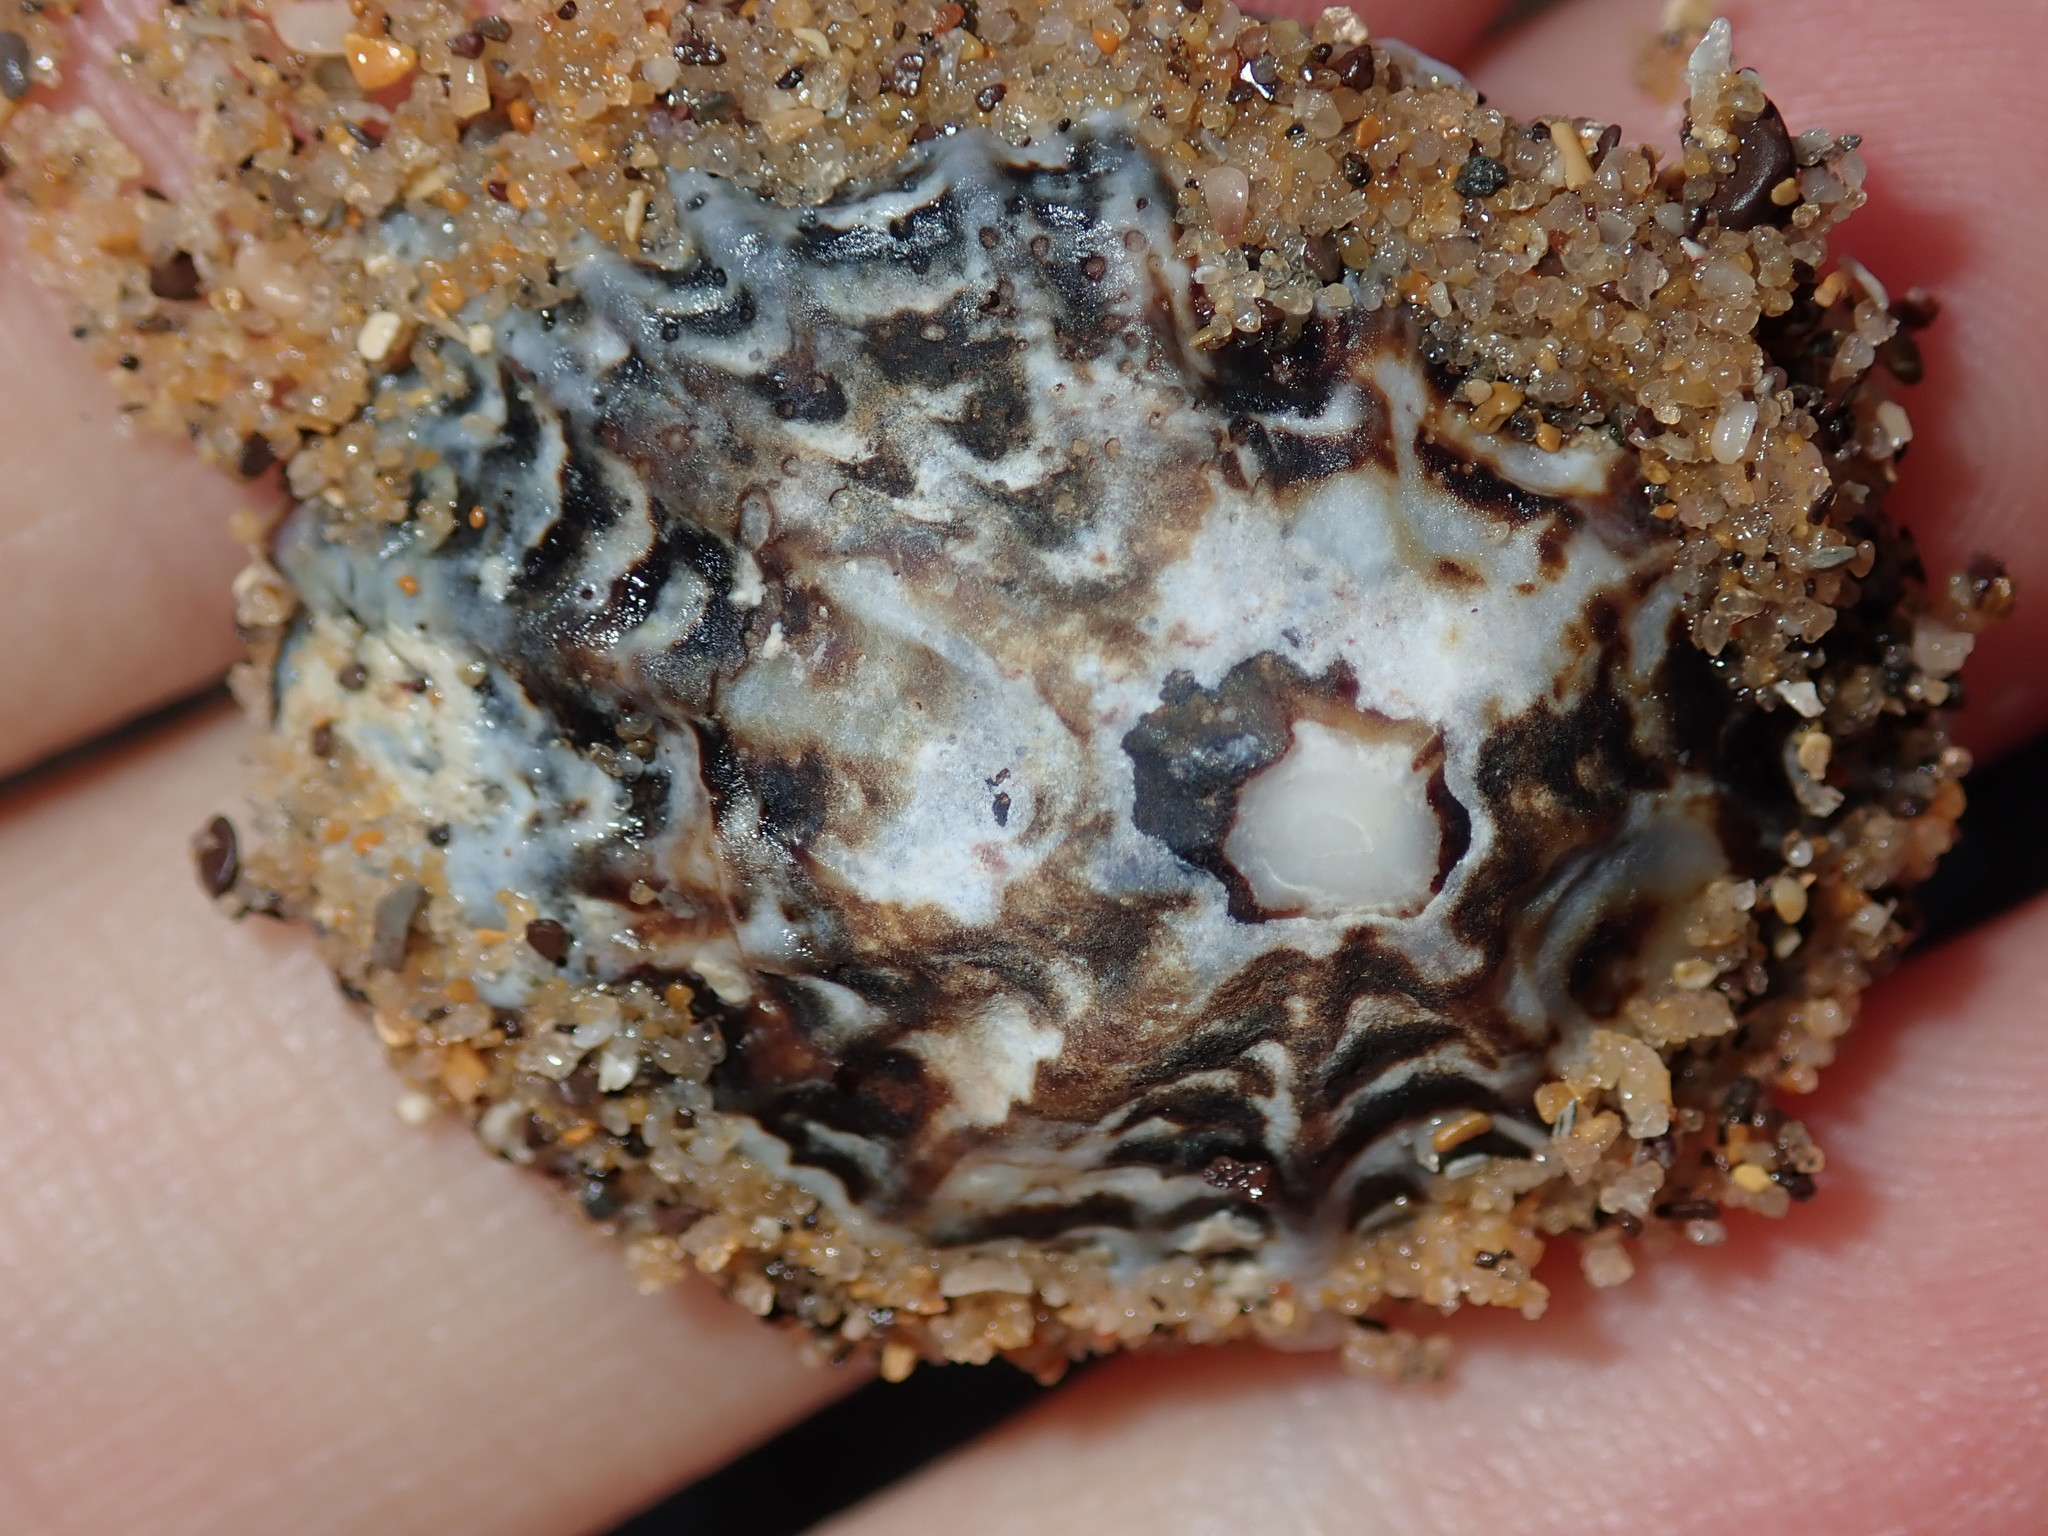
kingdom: Animalia
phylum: Mollusca
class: Gastropoda
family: Lottiidae
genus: Patelloida
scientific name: Patelloida alticostata
